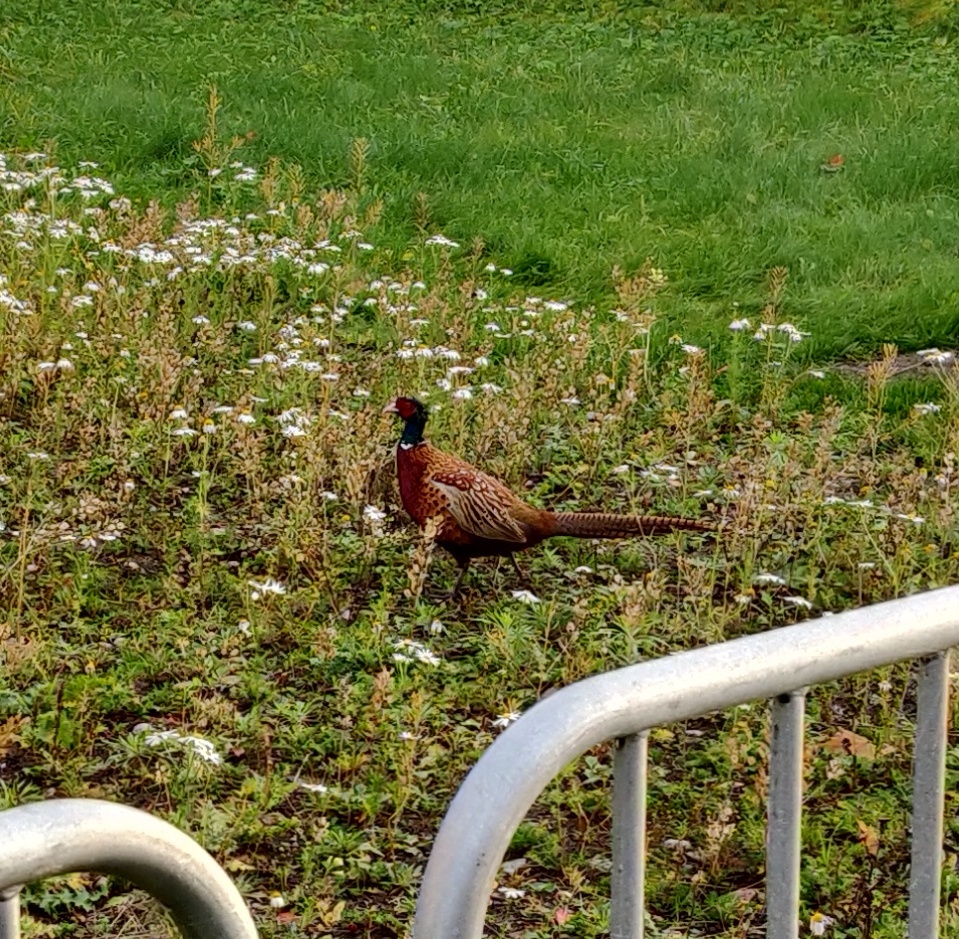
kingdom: Animalia
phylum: Chordata
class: Aves
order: Galliformes
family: Phasianidae
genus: Phasianus
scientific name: Phasianus colchicus
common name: Common pheasant
